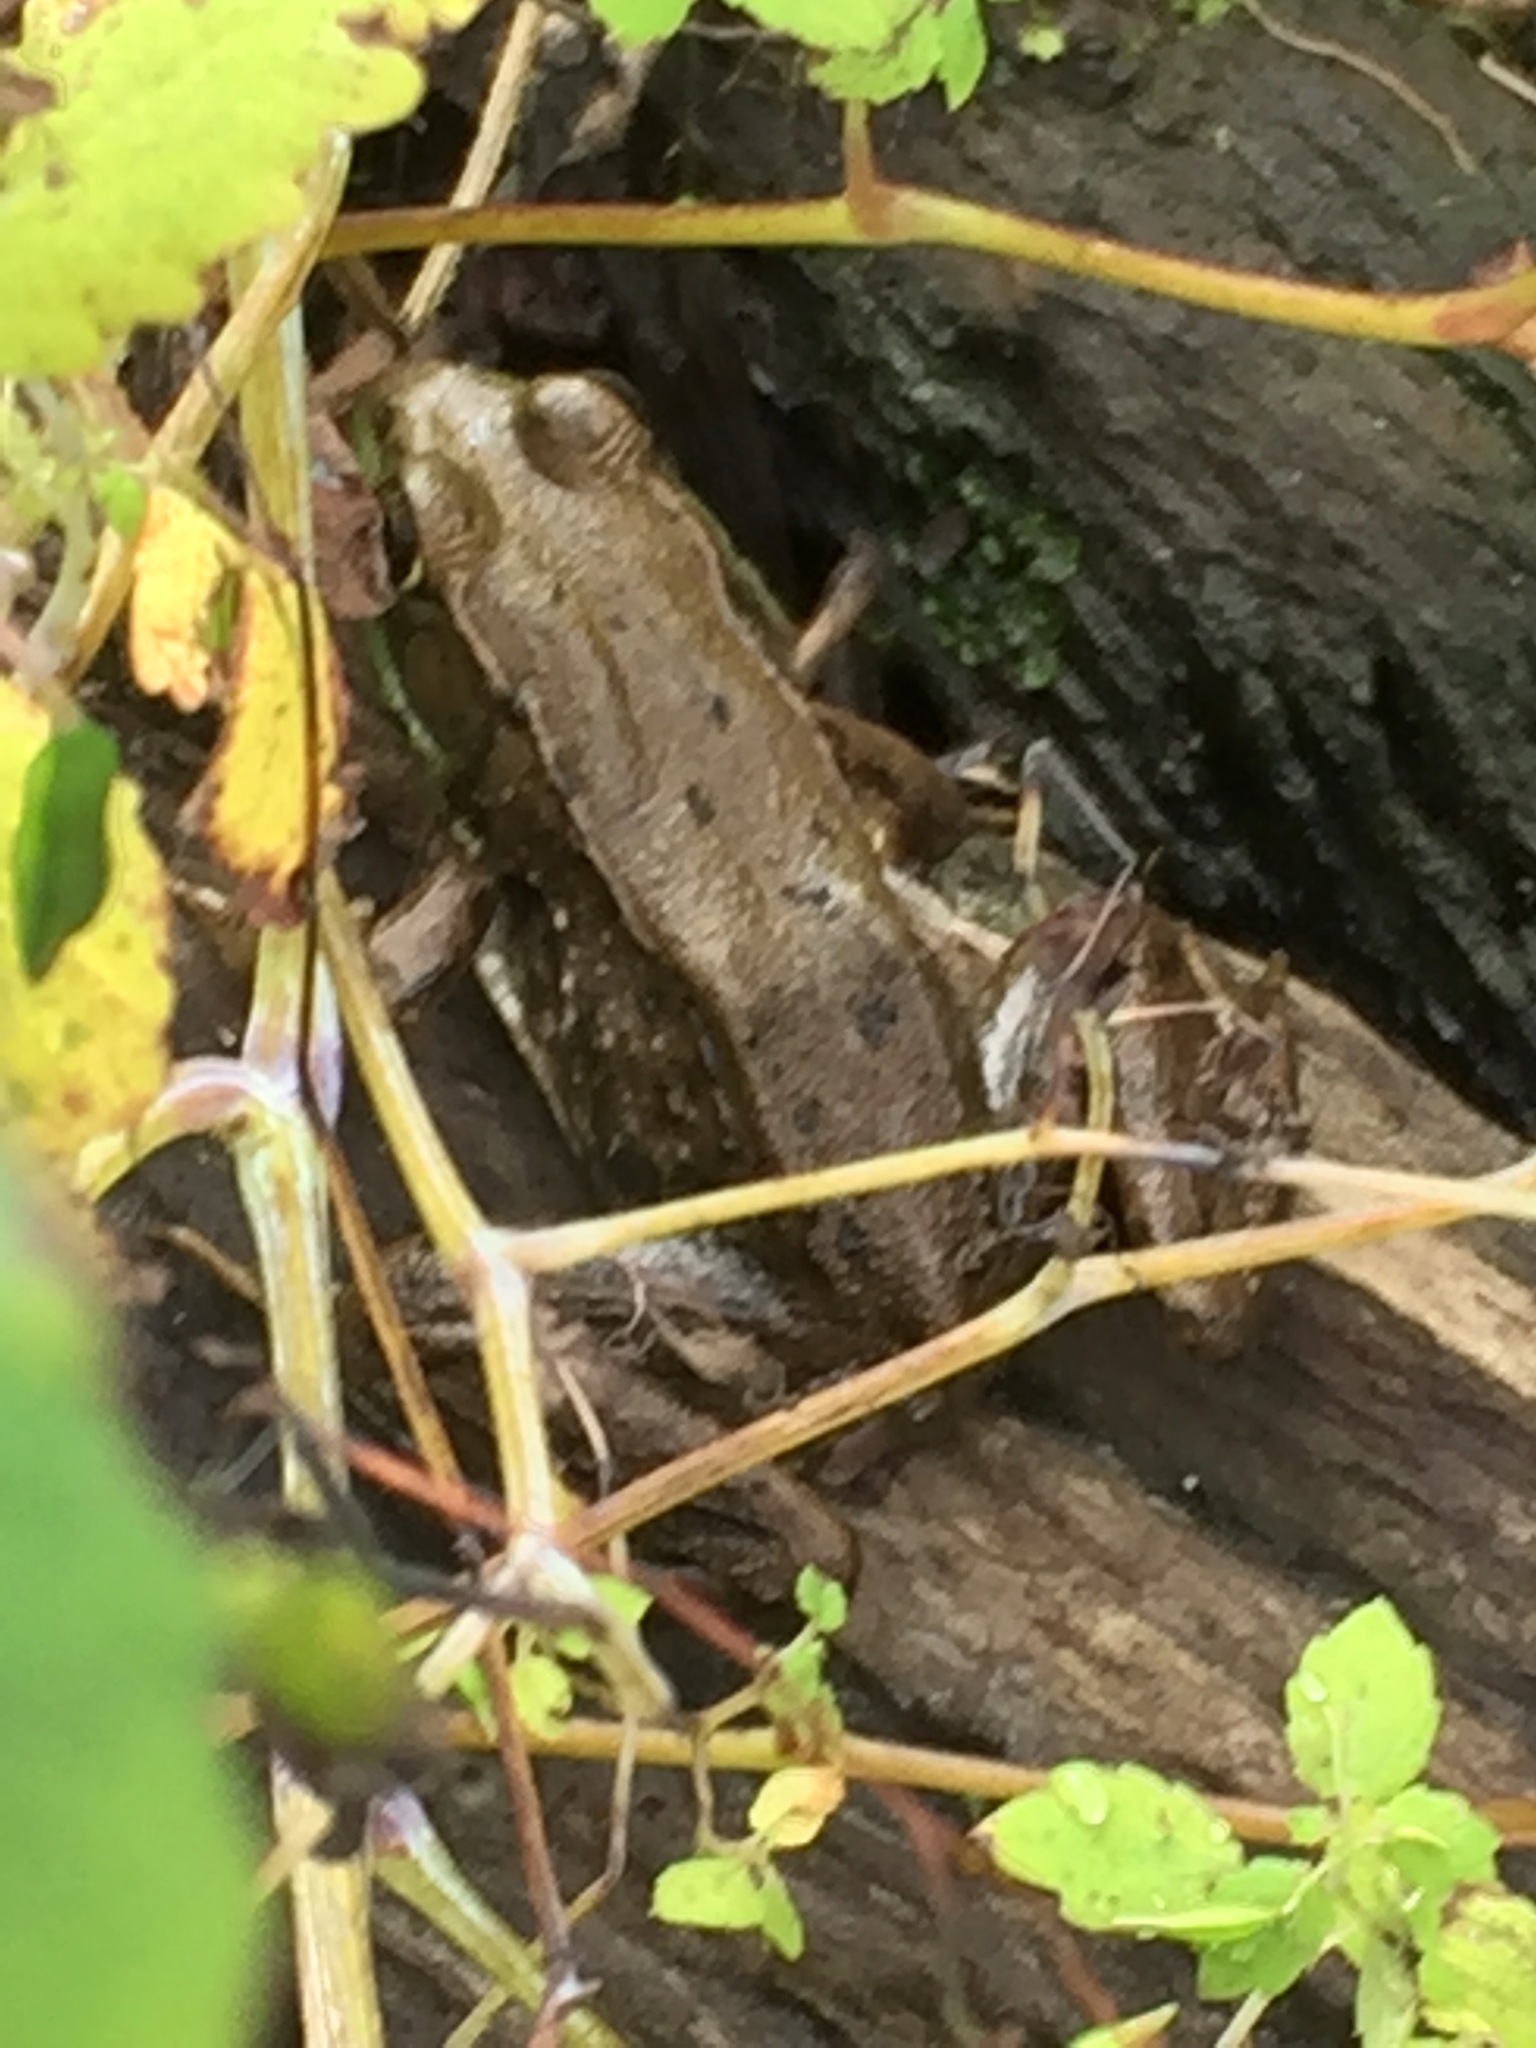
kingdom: Animalia
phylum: Chordata
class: Amphibia
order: Anura
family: Ranidae
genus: Lithobates
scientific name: Lithobates clamitans
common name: Green frog
